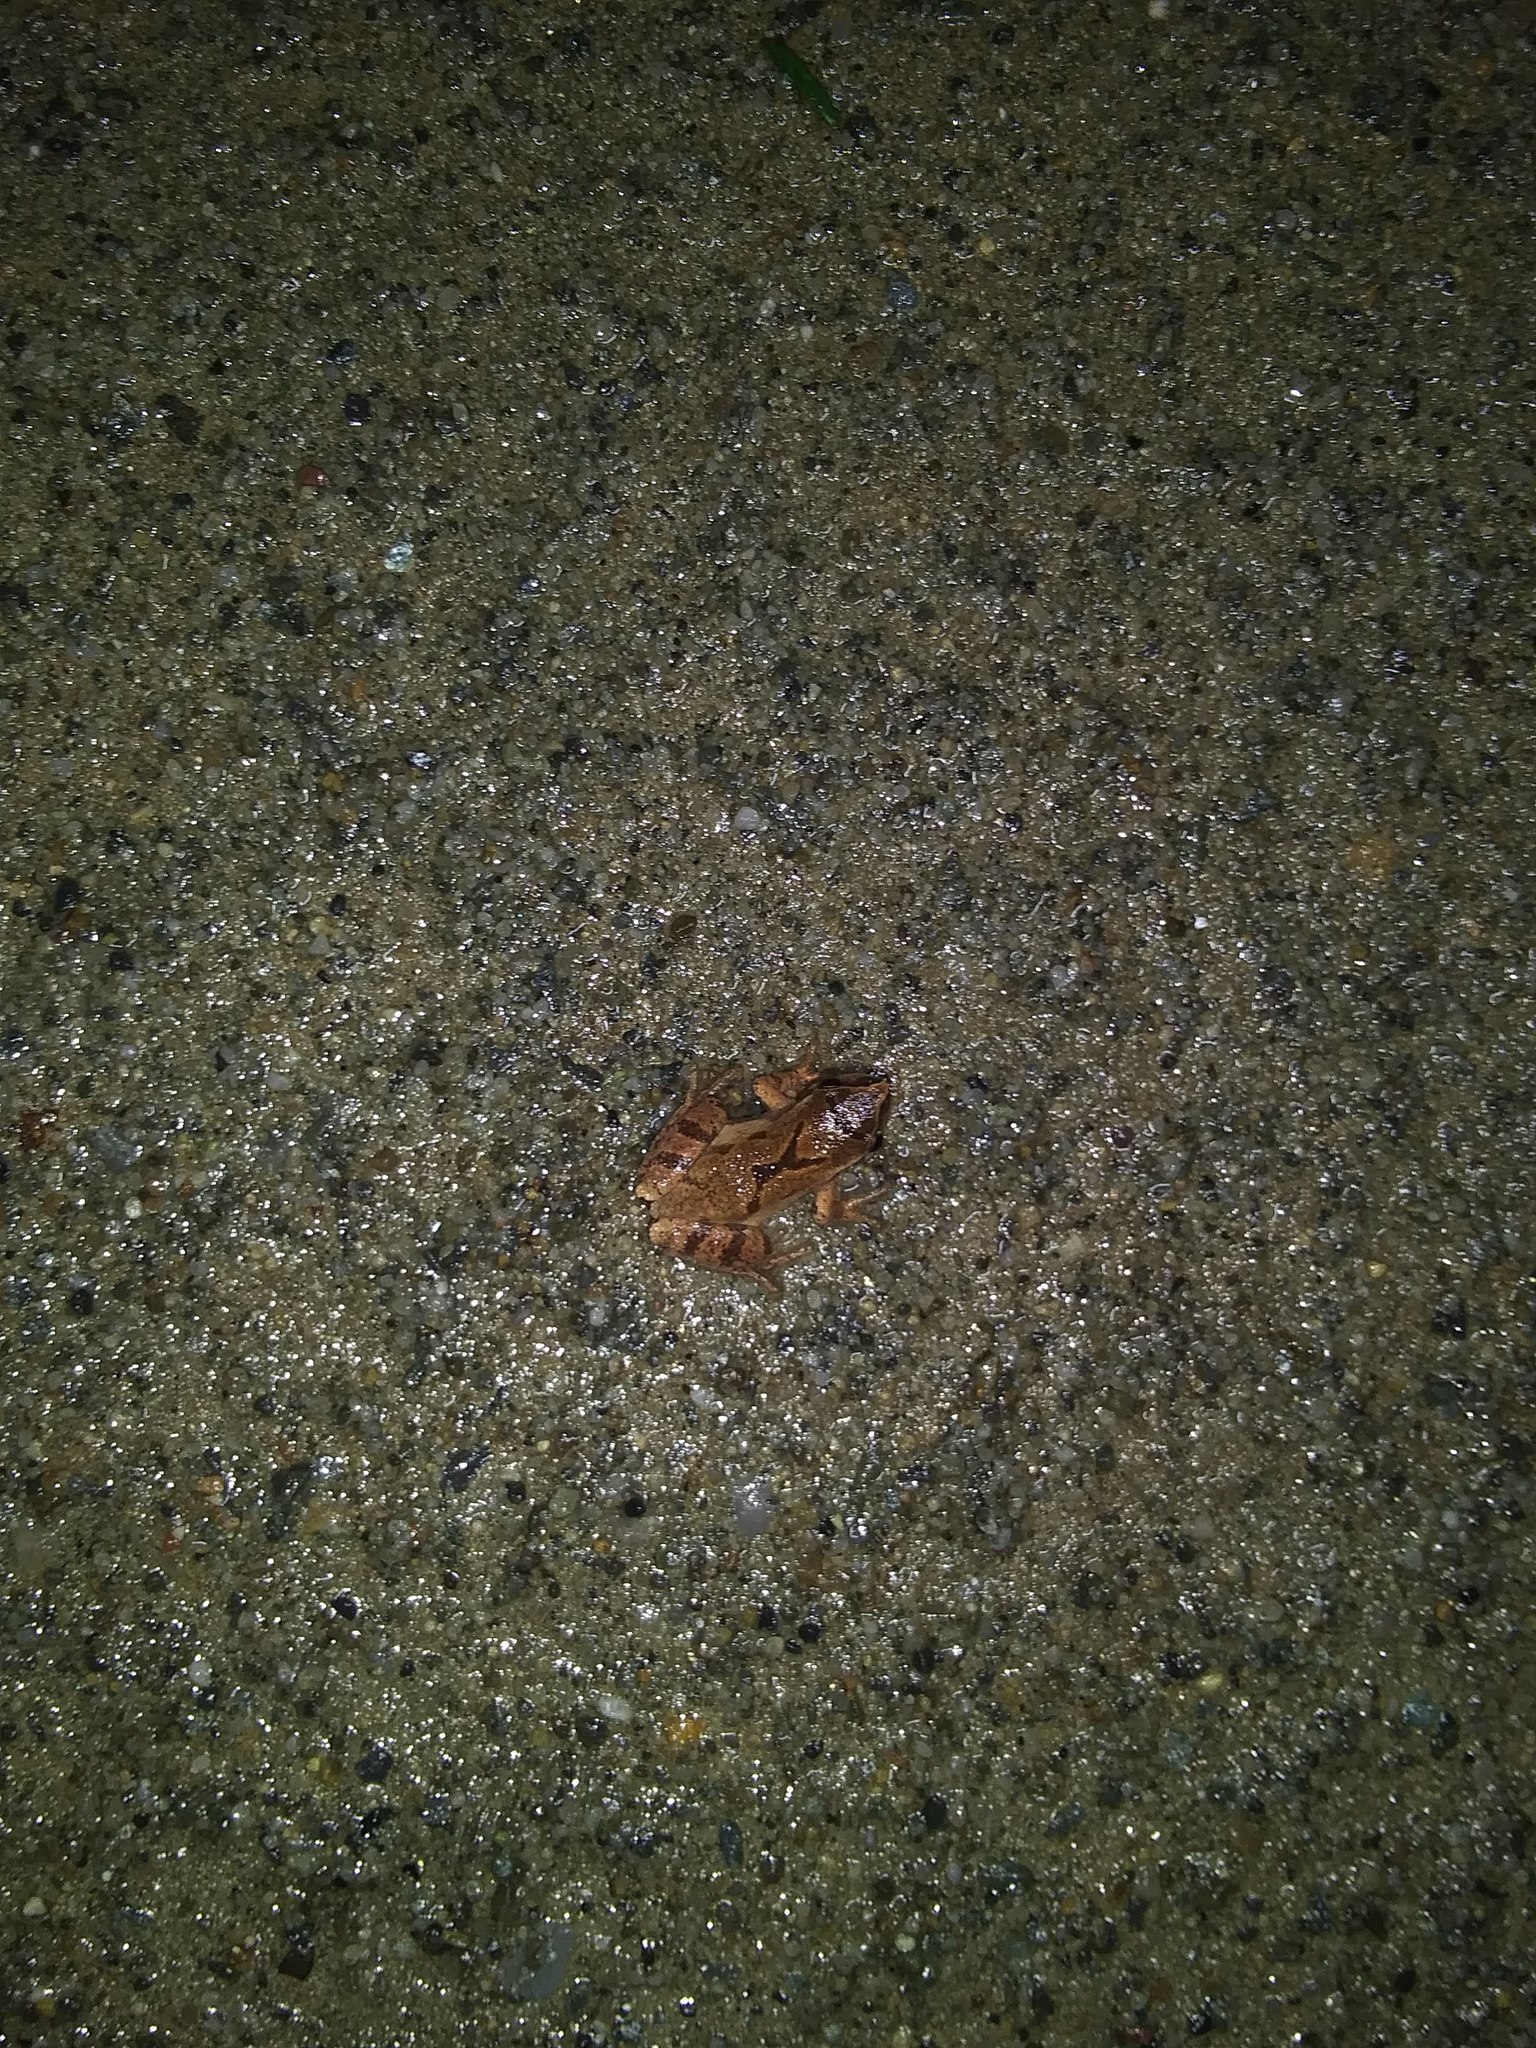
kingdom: Animalia
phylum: Chordata
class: Amphibia
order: Anura
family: Hylidae
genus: Pseudacris
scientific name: Pseudacris crucifer
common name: Spring peeper
